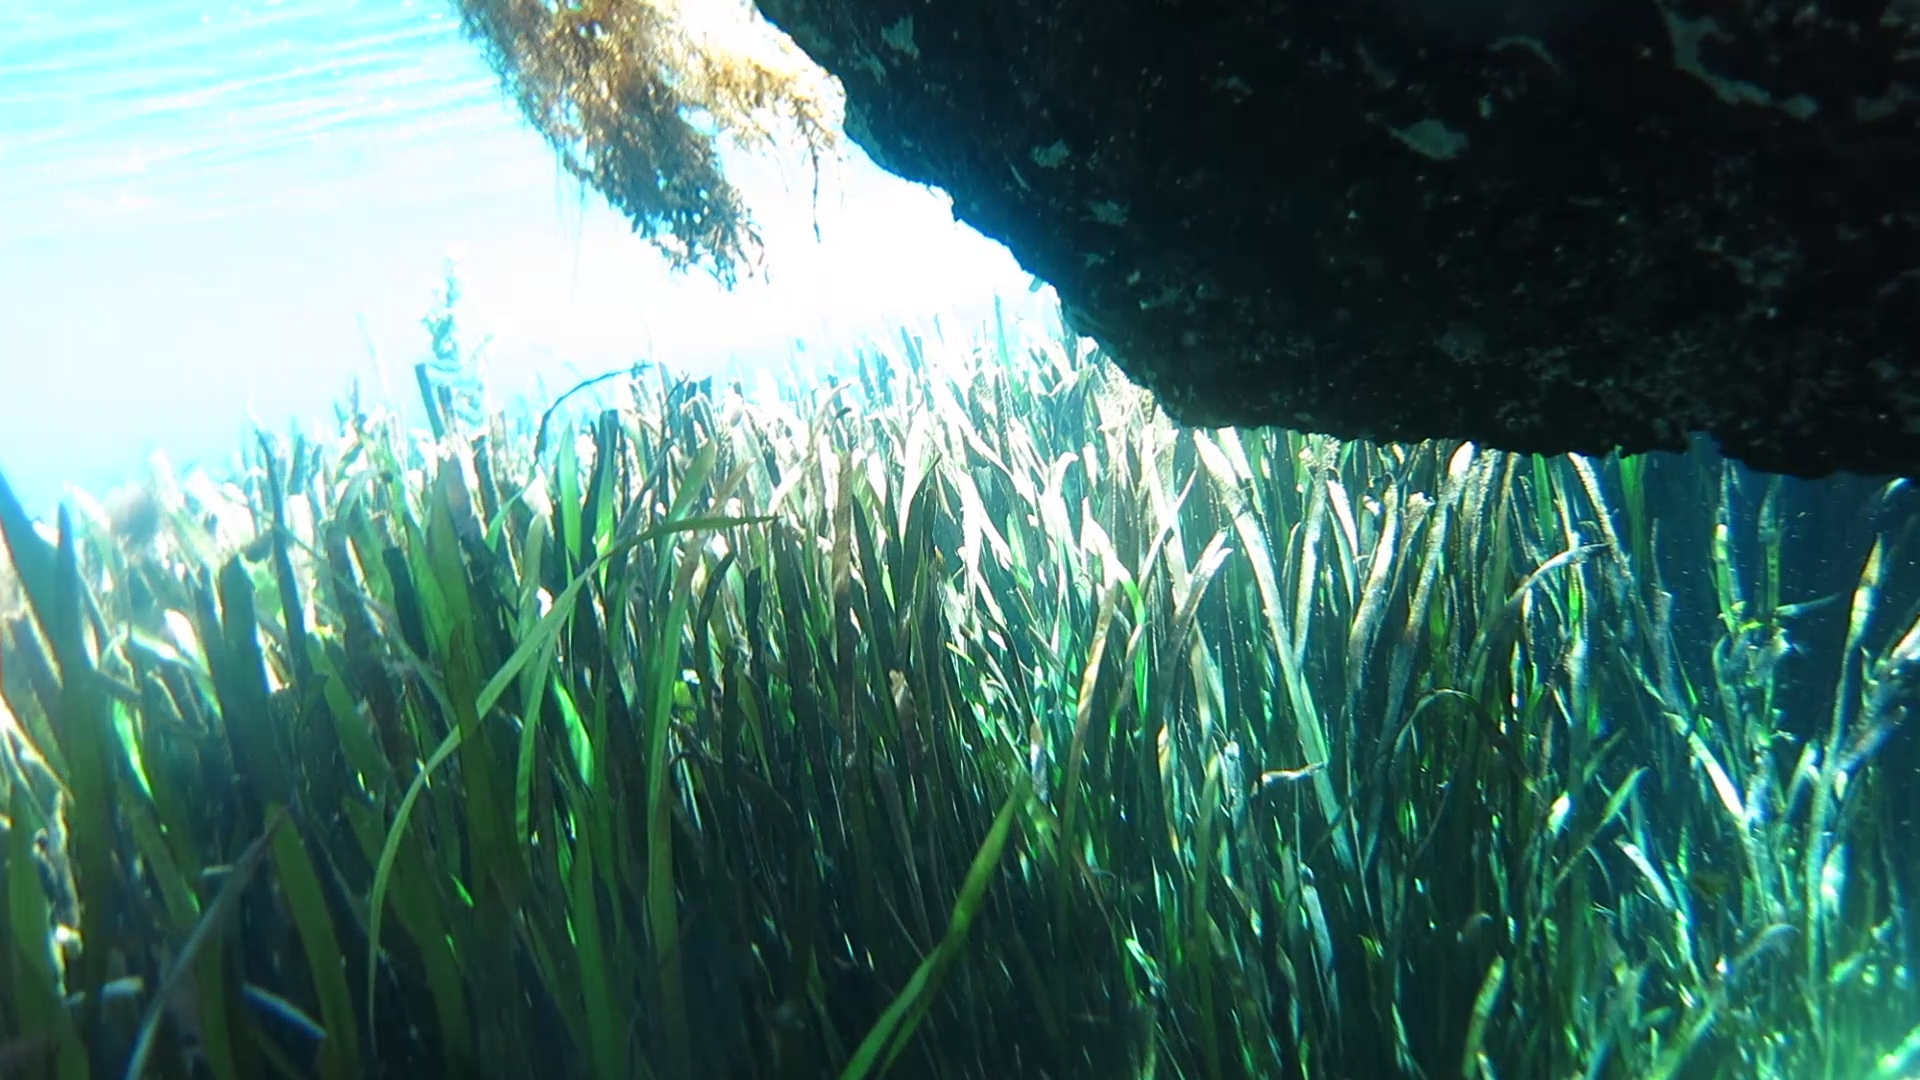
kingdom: Plantae
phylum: Tracheophyta
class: Liliopsida
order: Alismatales
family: Hydrocharitaceae
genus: Vallisneria
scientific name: Vallisneria americana
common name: American eelgrass
